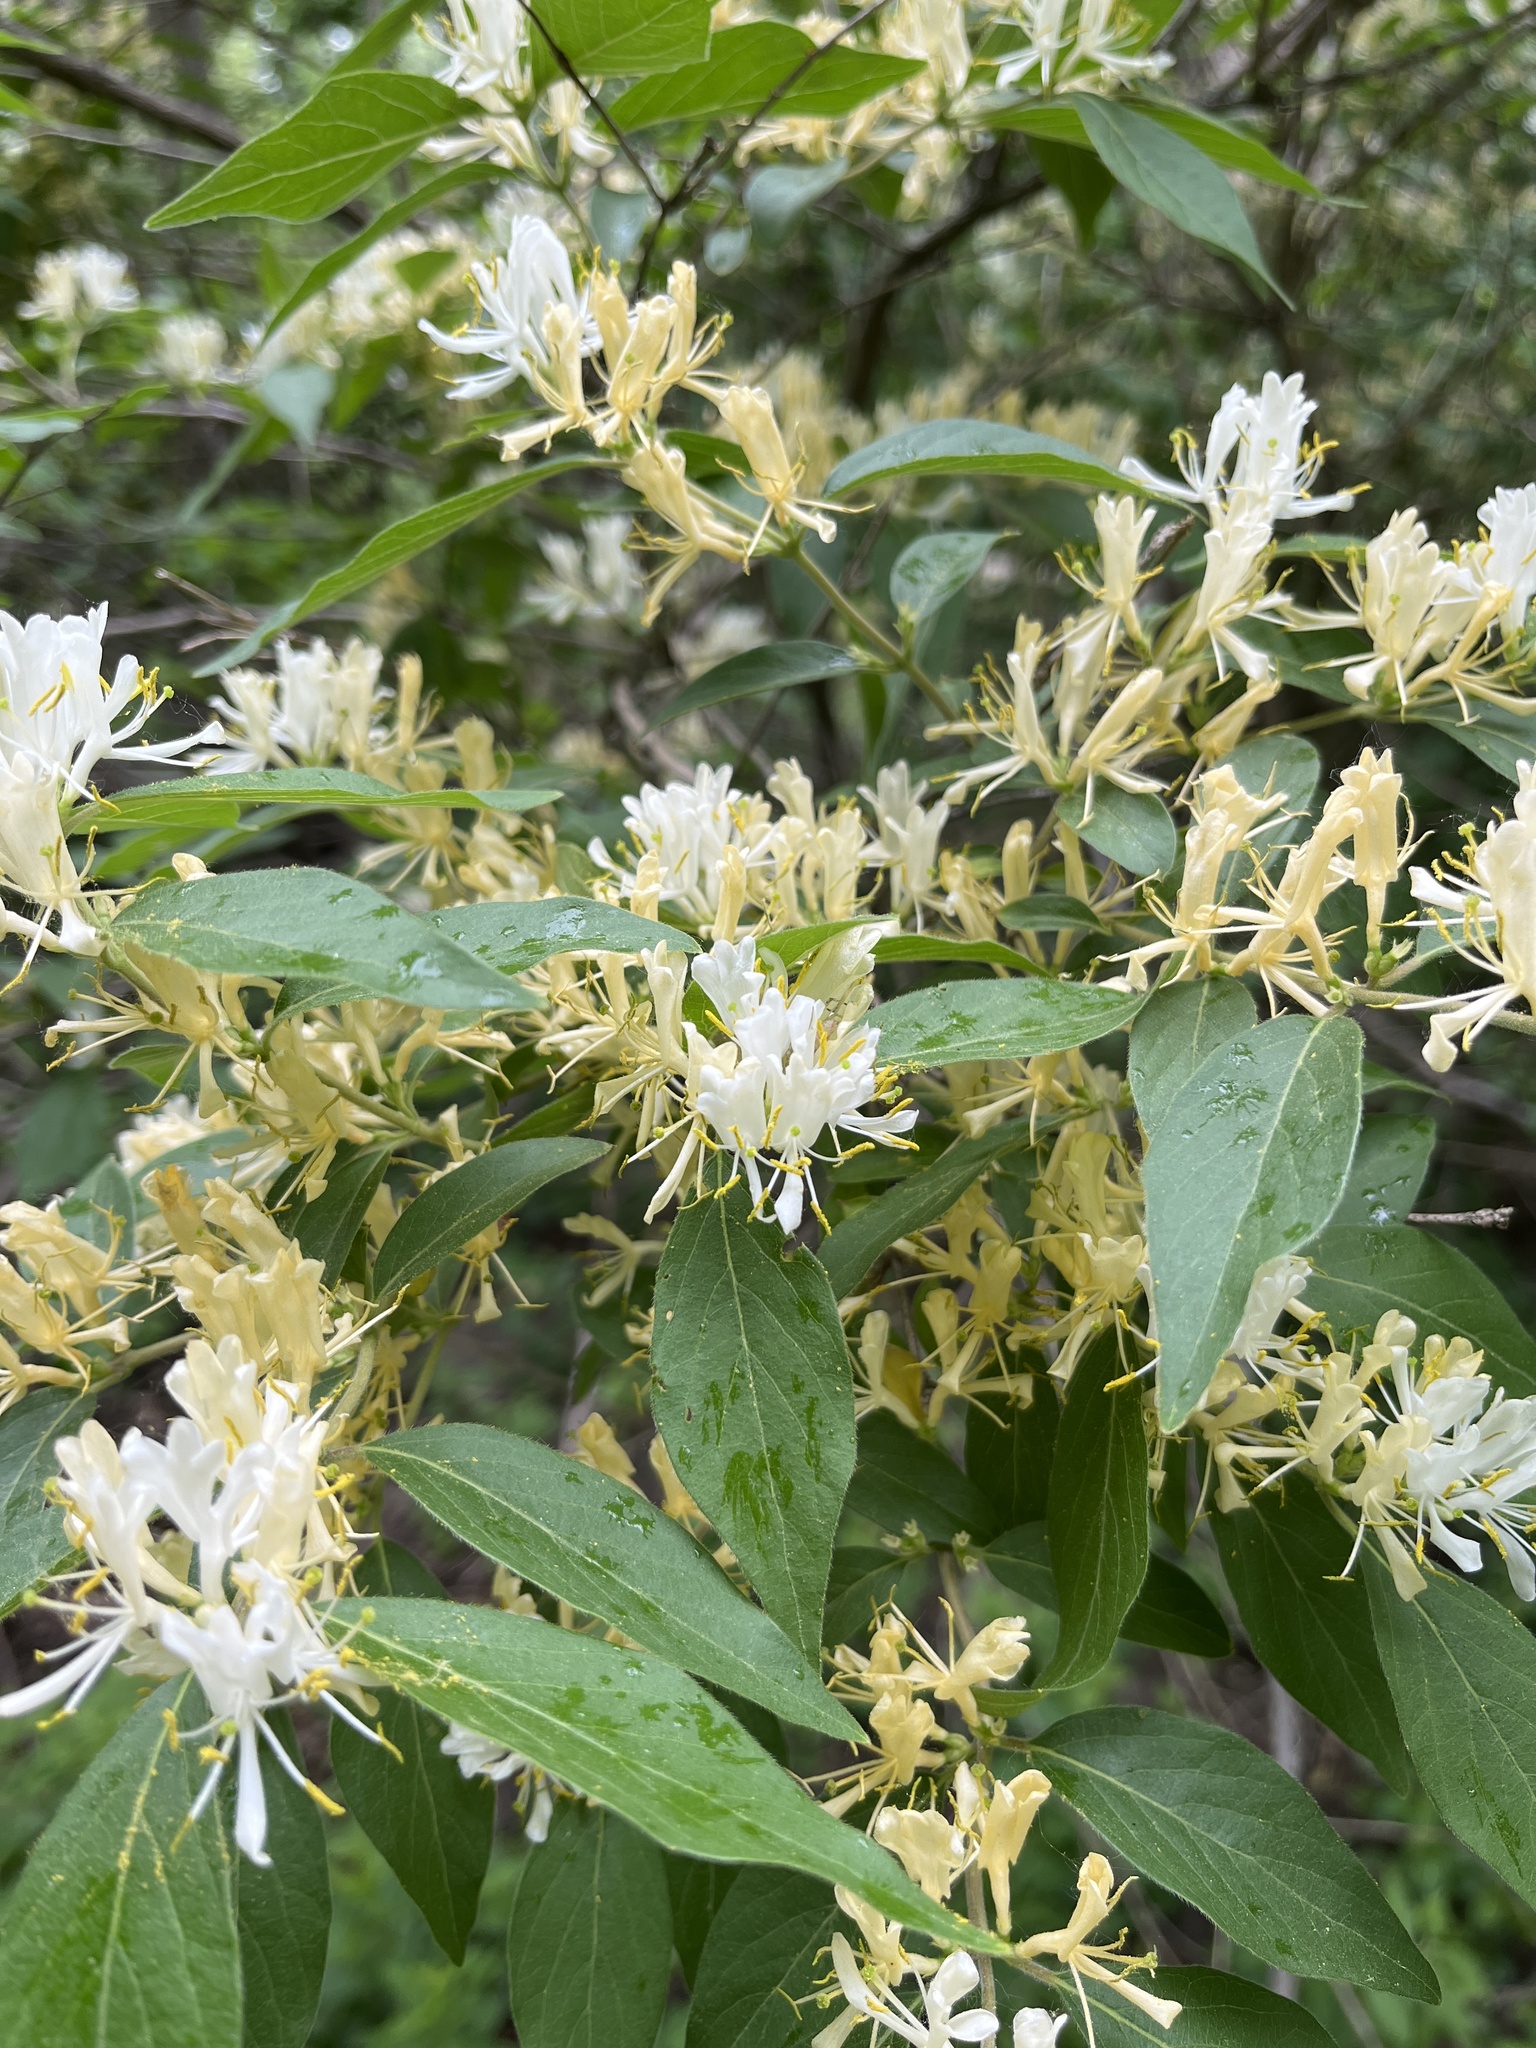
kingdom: Plantae
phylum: Tracheophyta
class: Magnoliopsida
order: Dipsacales
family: Caprifoliaceae
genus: Lonicera
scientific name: Lonicera maackii
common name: Amur honeysuckle
